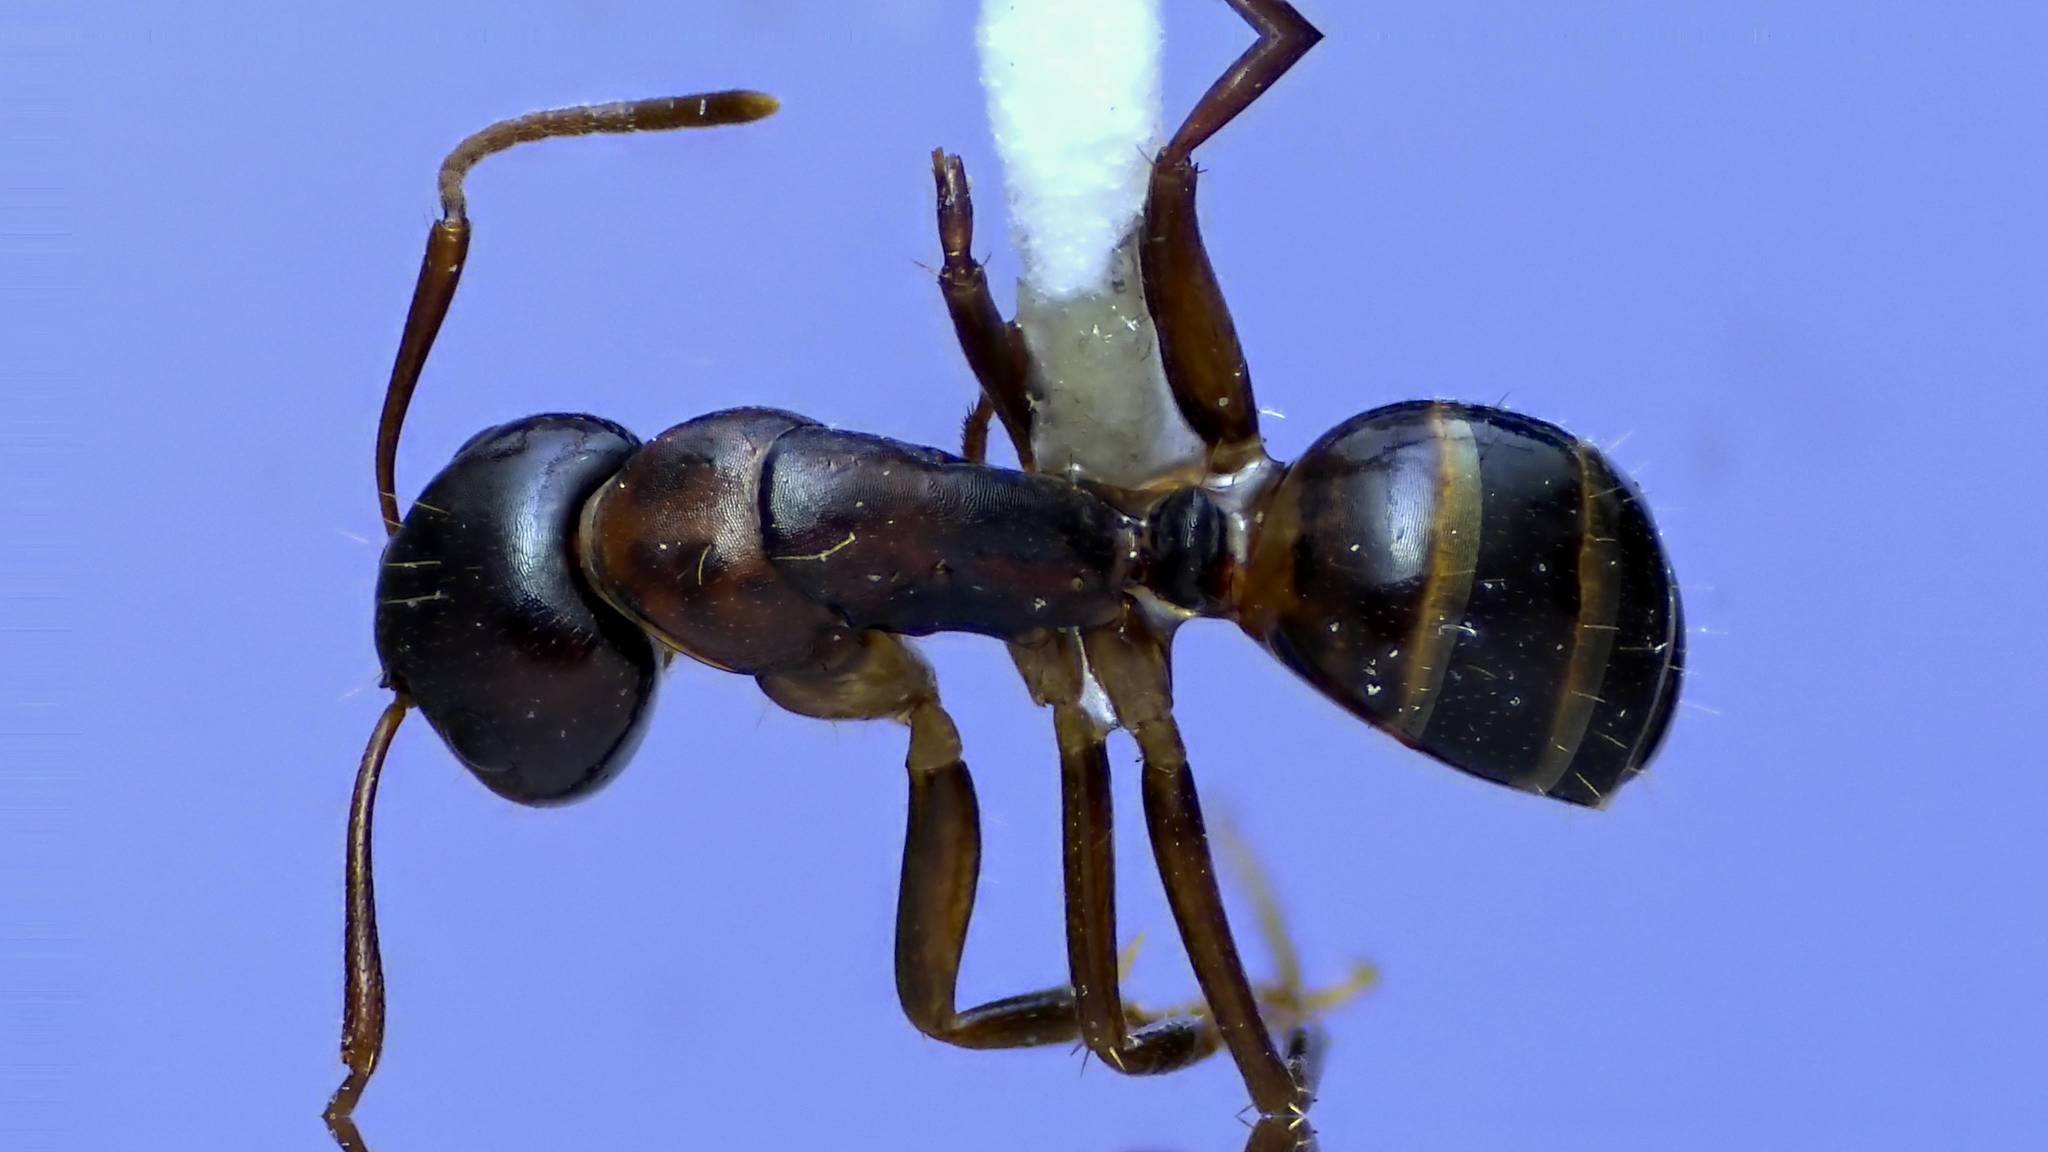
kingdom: Animalia
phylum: Arthropoda
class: Insecta
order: Hymenoptera
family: Formicidae
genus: Camponotus
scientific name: Camponotus subbarbatus
